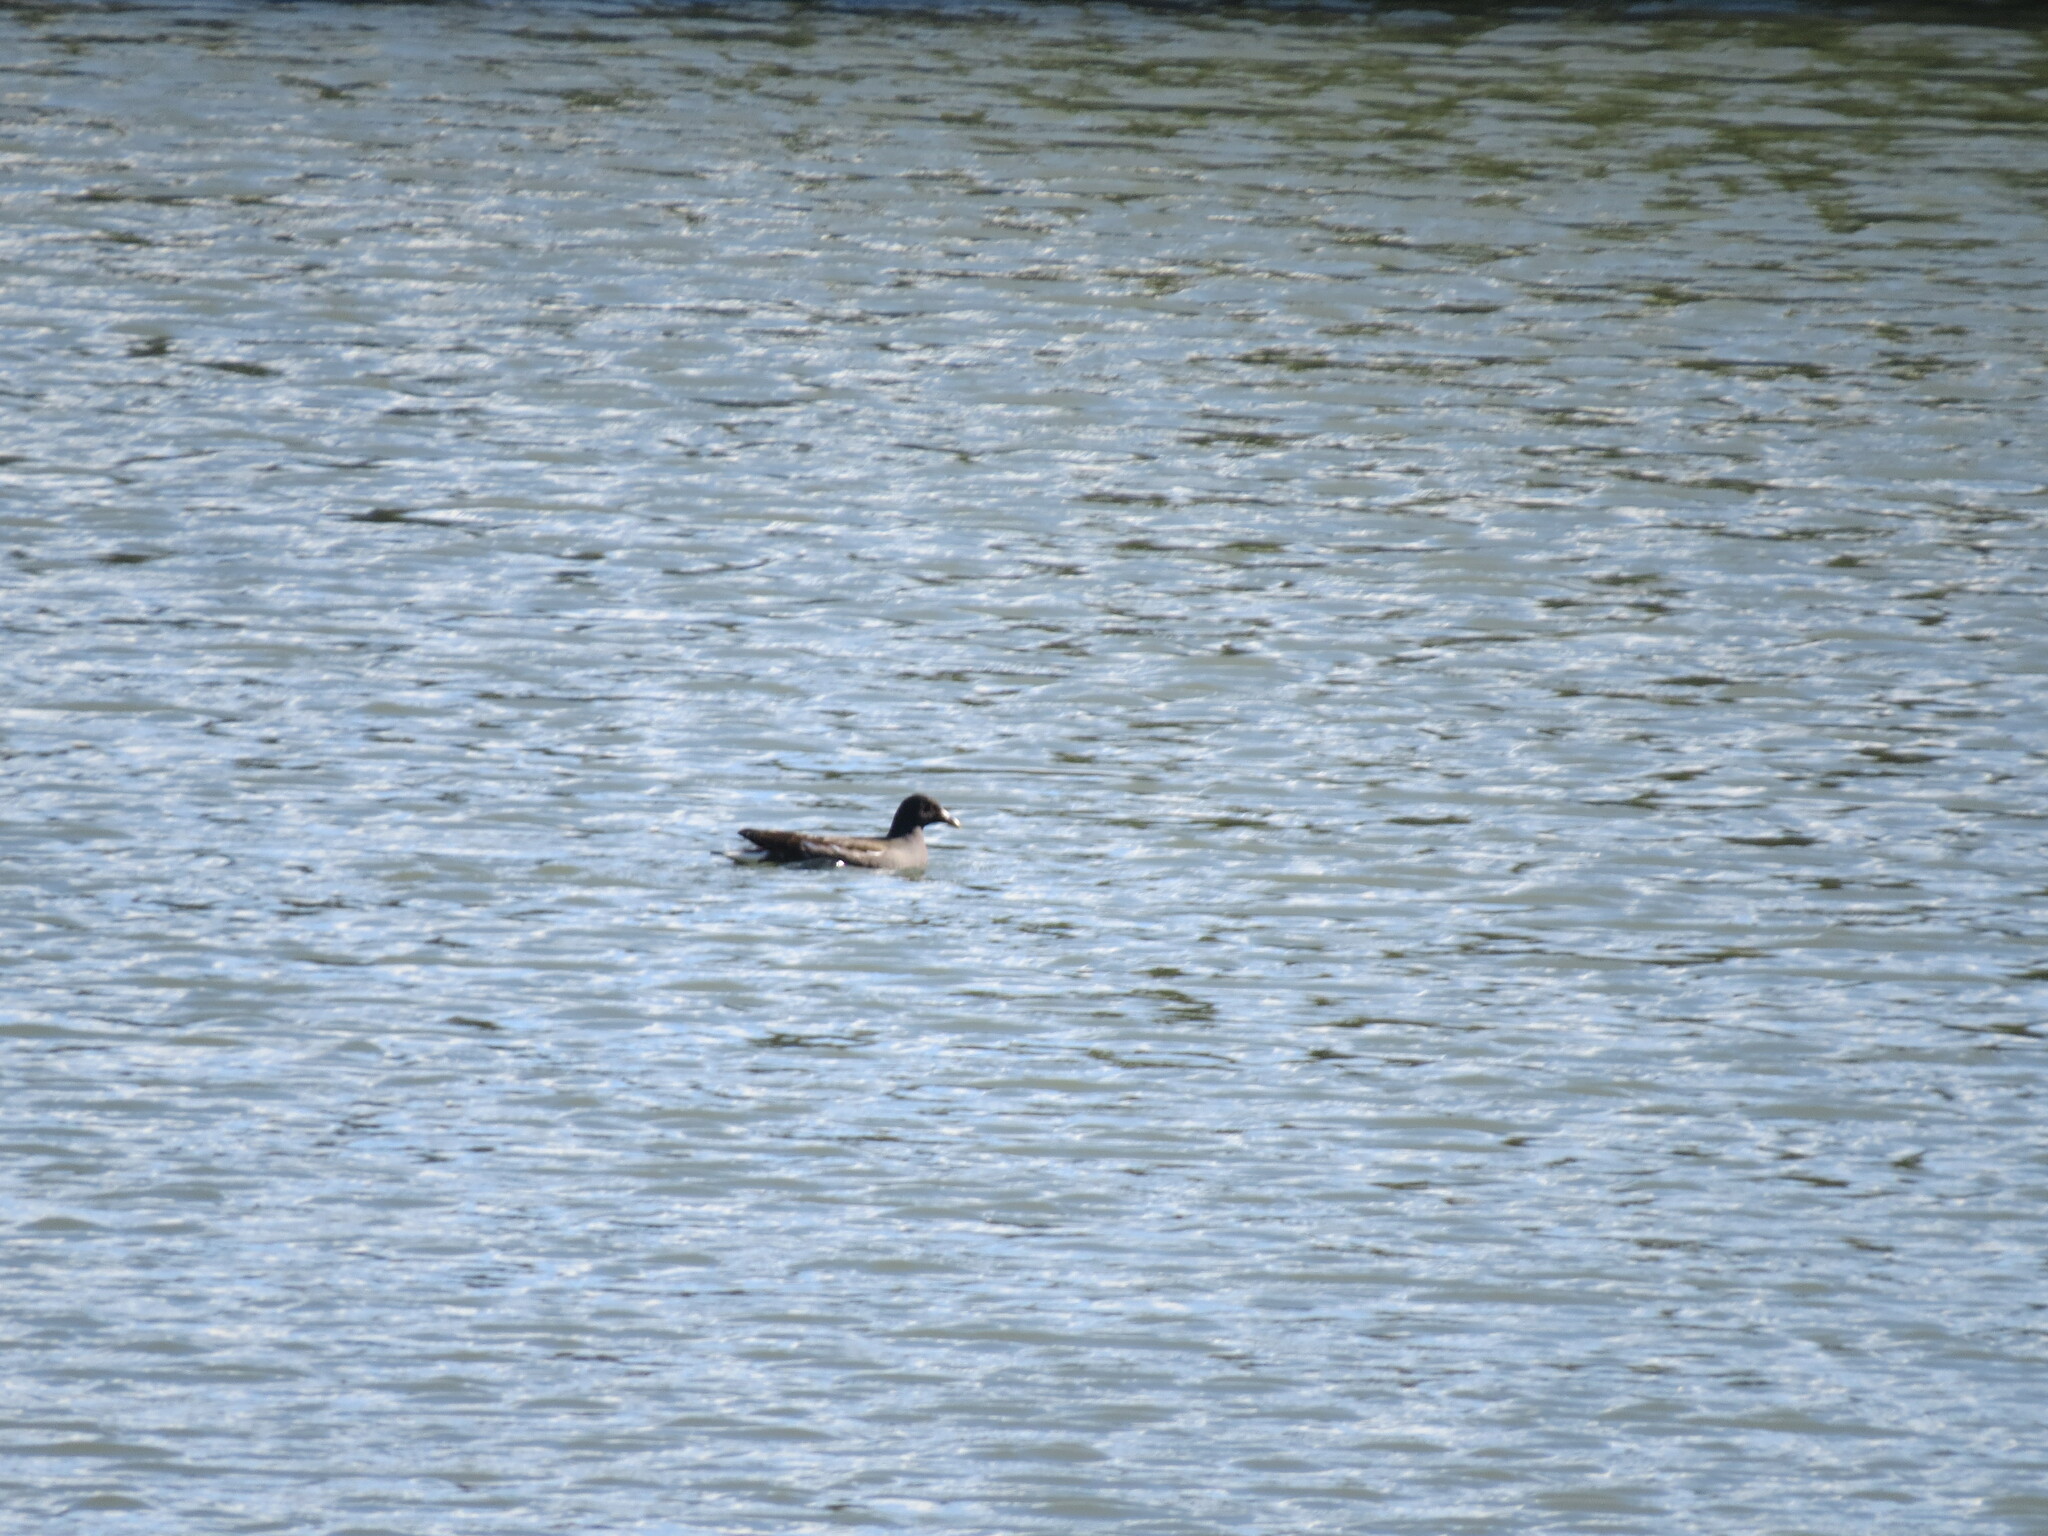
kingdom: Animalia
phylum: Chordata
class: Aves
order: Gruiformes
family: Rallidae
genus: Gallinula
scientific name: Gallinula chloropus
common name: Common moorhen
